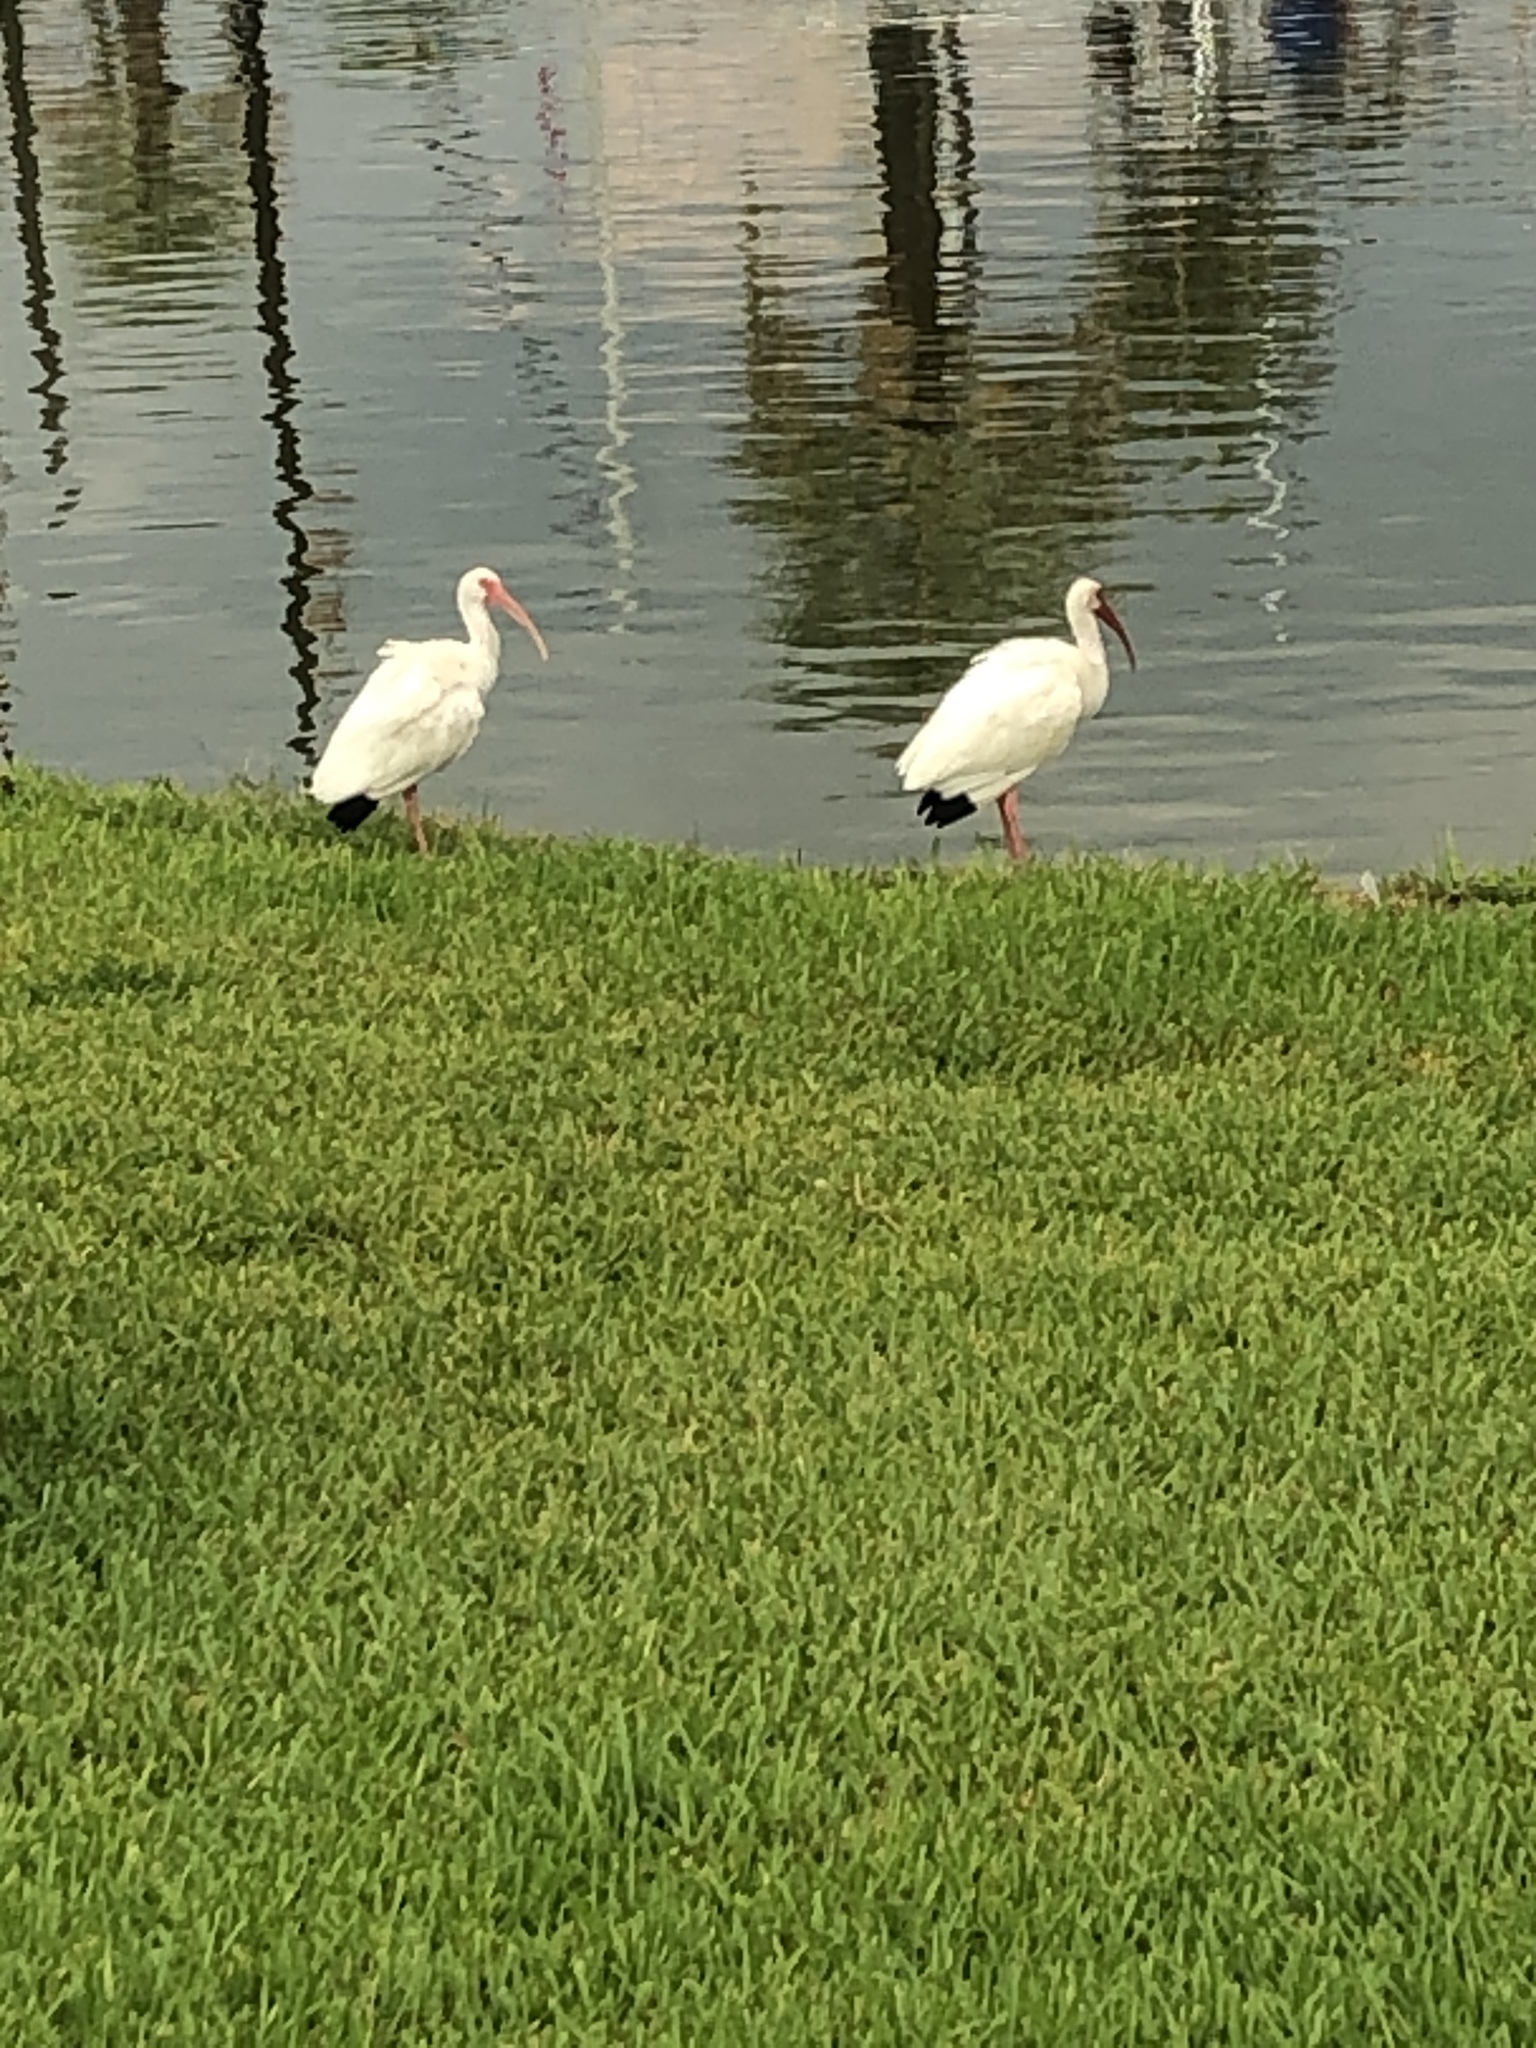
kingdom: Animalia
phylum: Chordata
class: Aves
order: Pelecaniformes
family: Threskiornithidae
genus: Eudocimus
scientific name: Eudocimus albus
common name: White ibis
